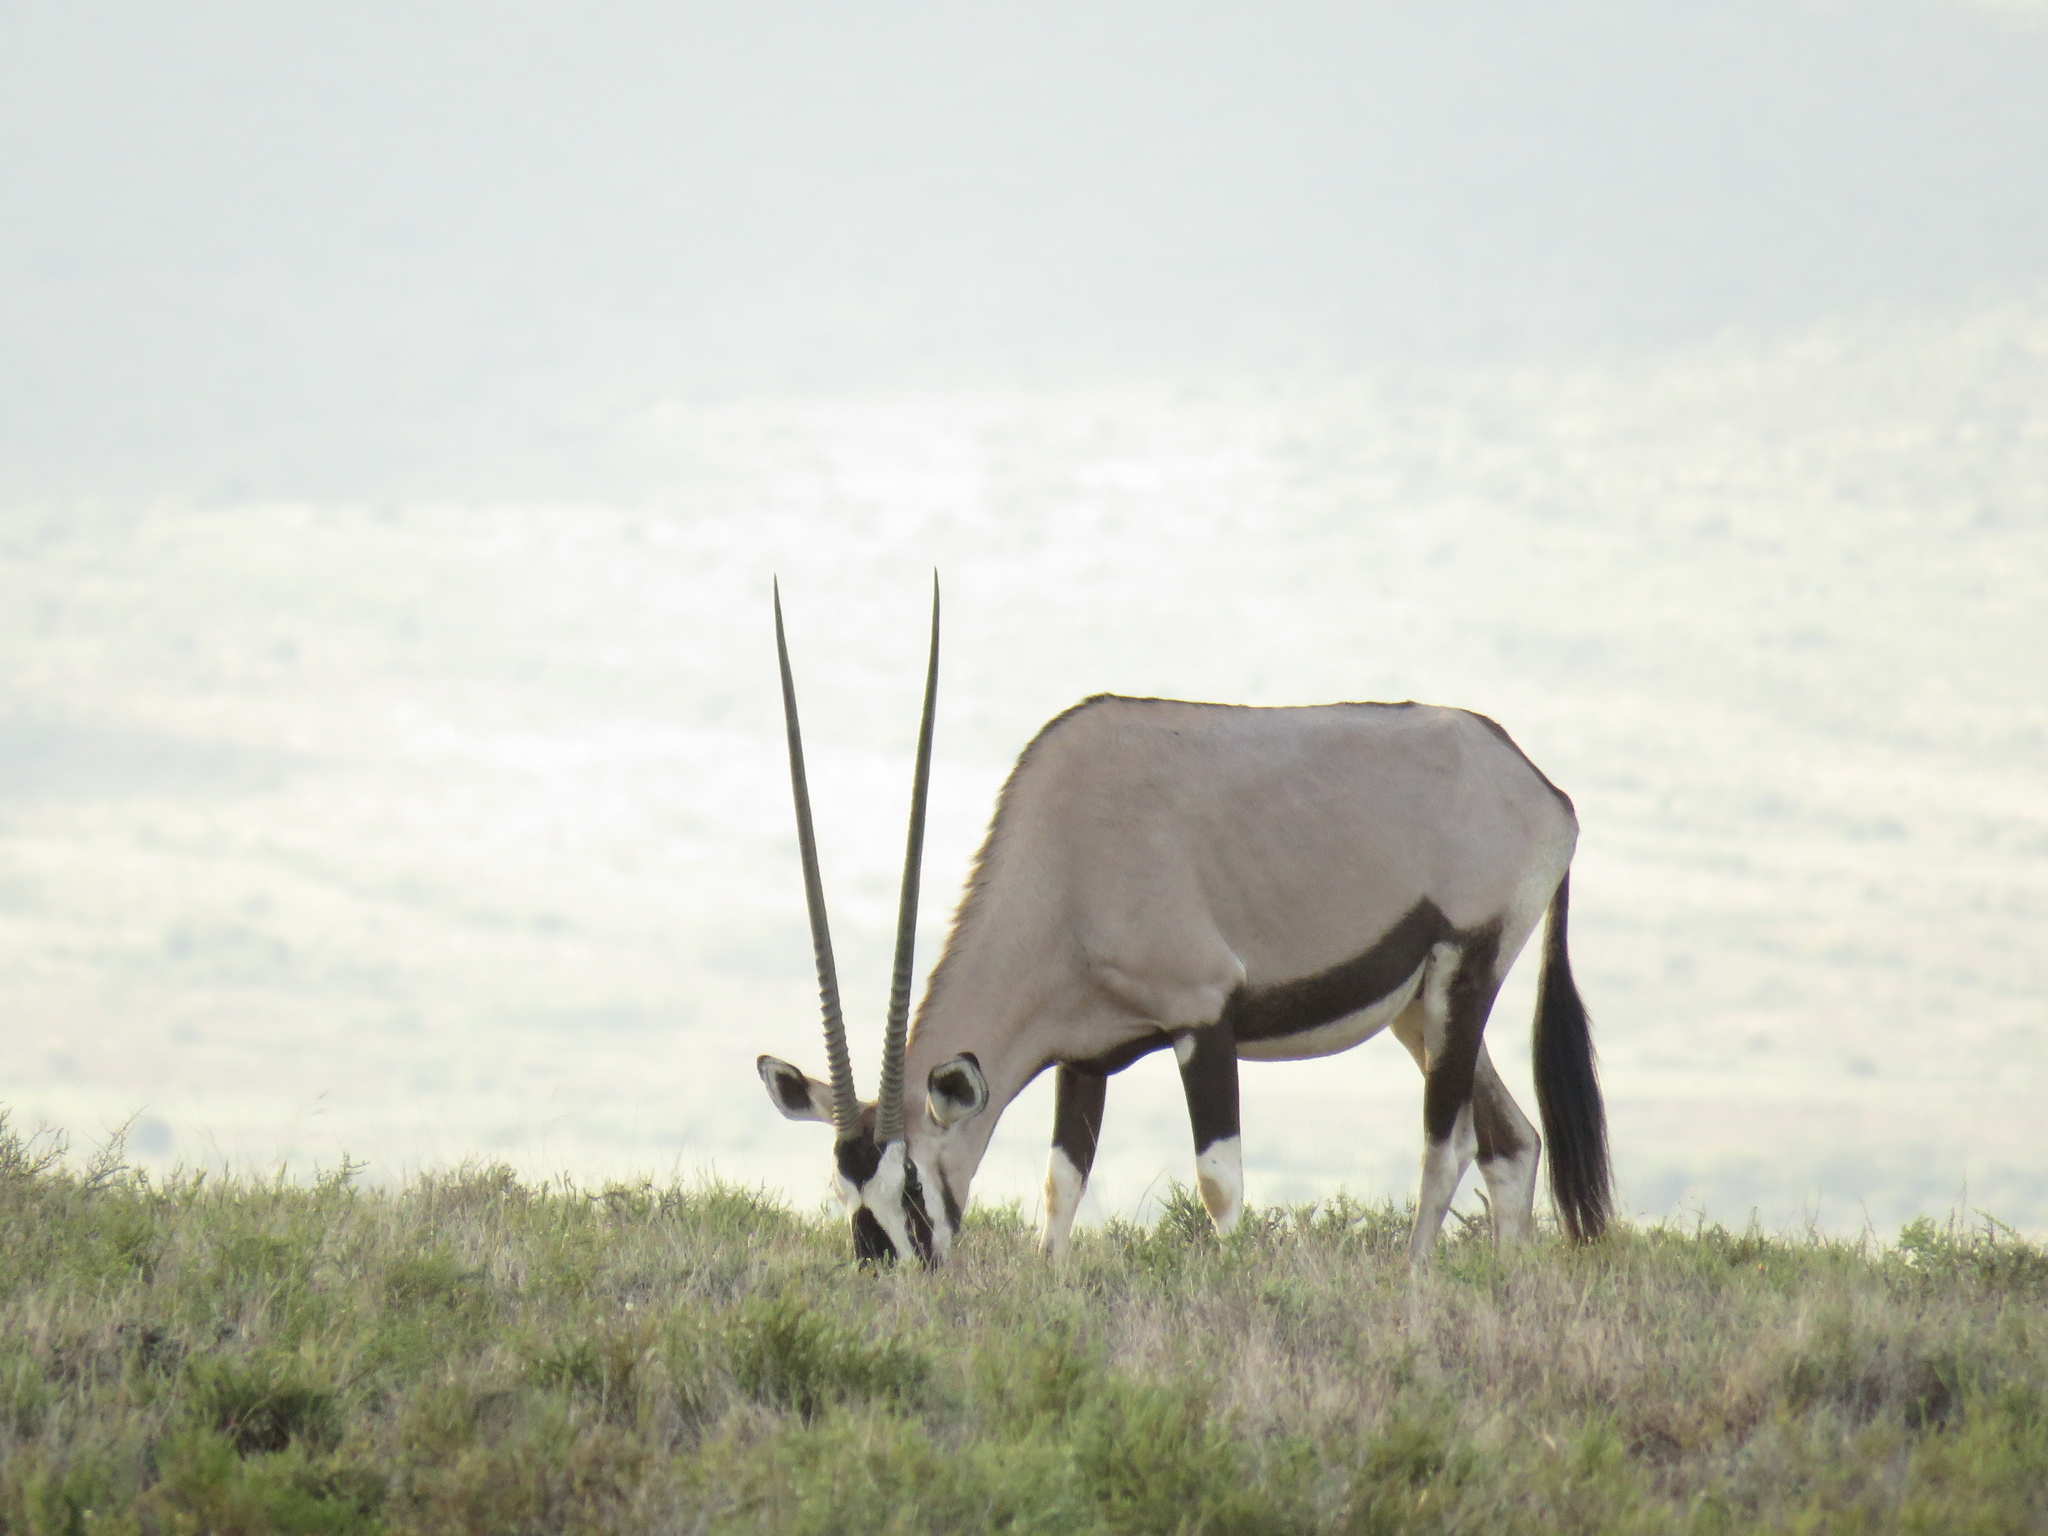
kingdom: Animalia
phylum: Chordata
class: Mammalia
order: Artiodactyla
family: Bovidae
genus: Oryx
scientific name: Oryx gazella
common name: Gemsbok
